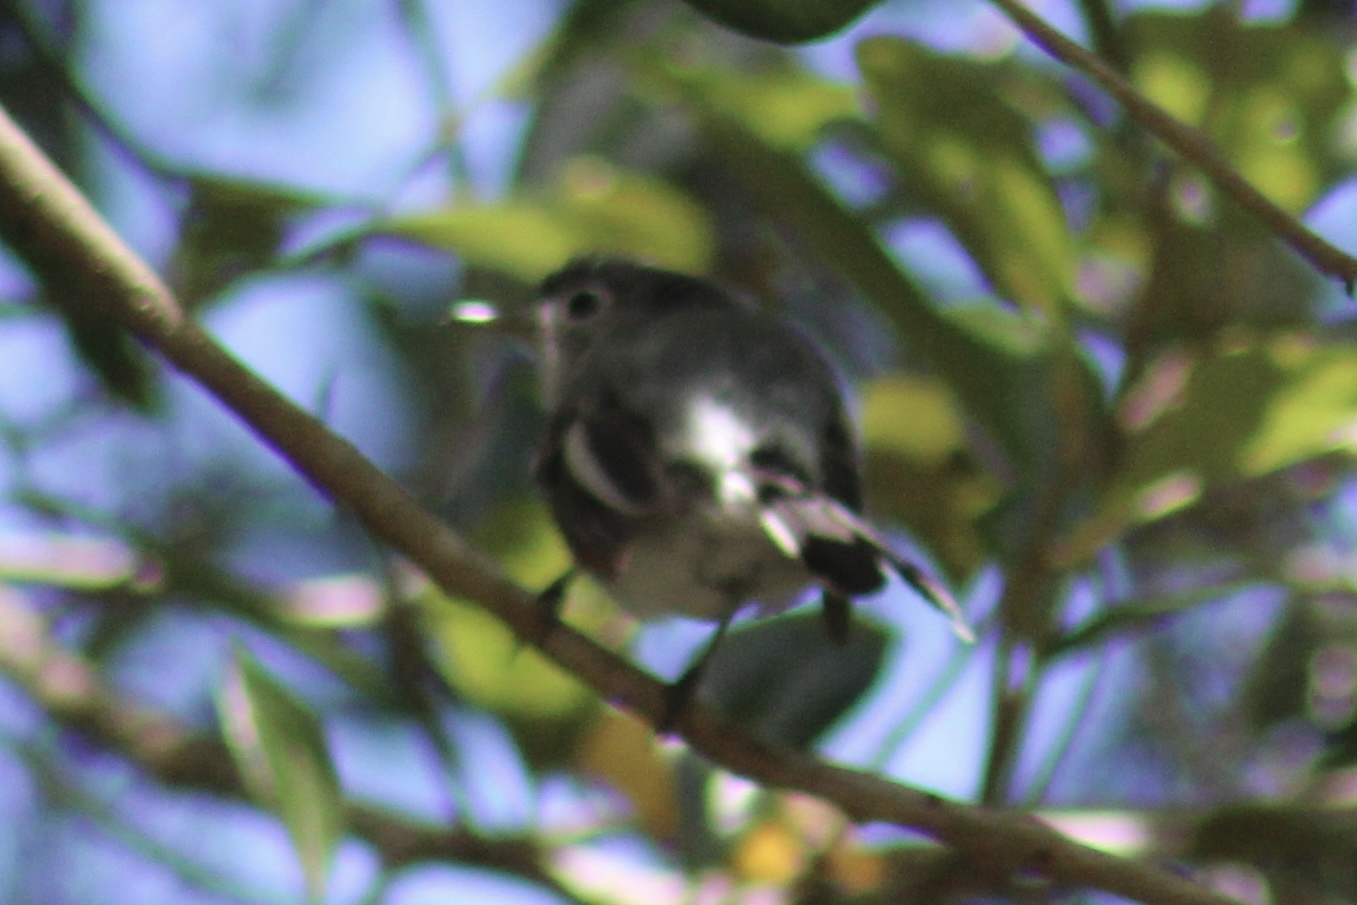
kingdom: Animalia
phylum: Chordata
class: Aves
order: Passeriformes
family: Polioptilidae
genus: Polioptila
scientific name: Polioptila caerulea
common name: Blue-gray gnatcatcher
